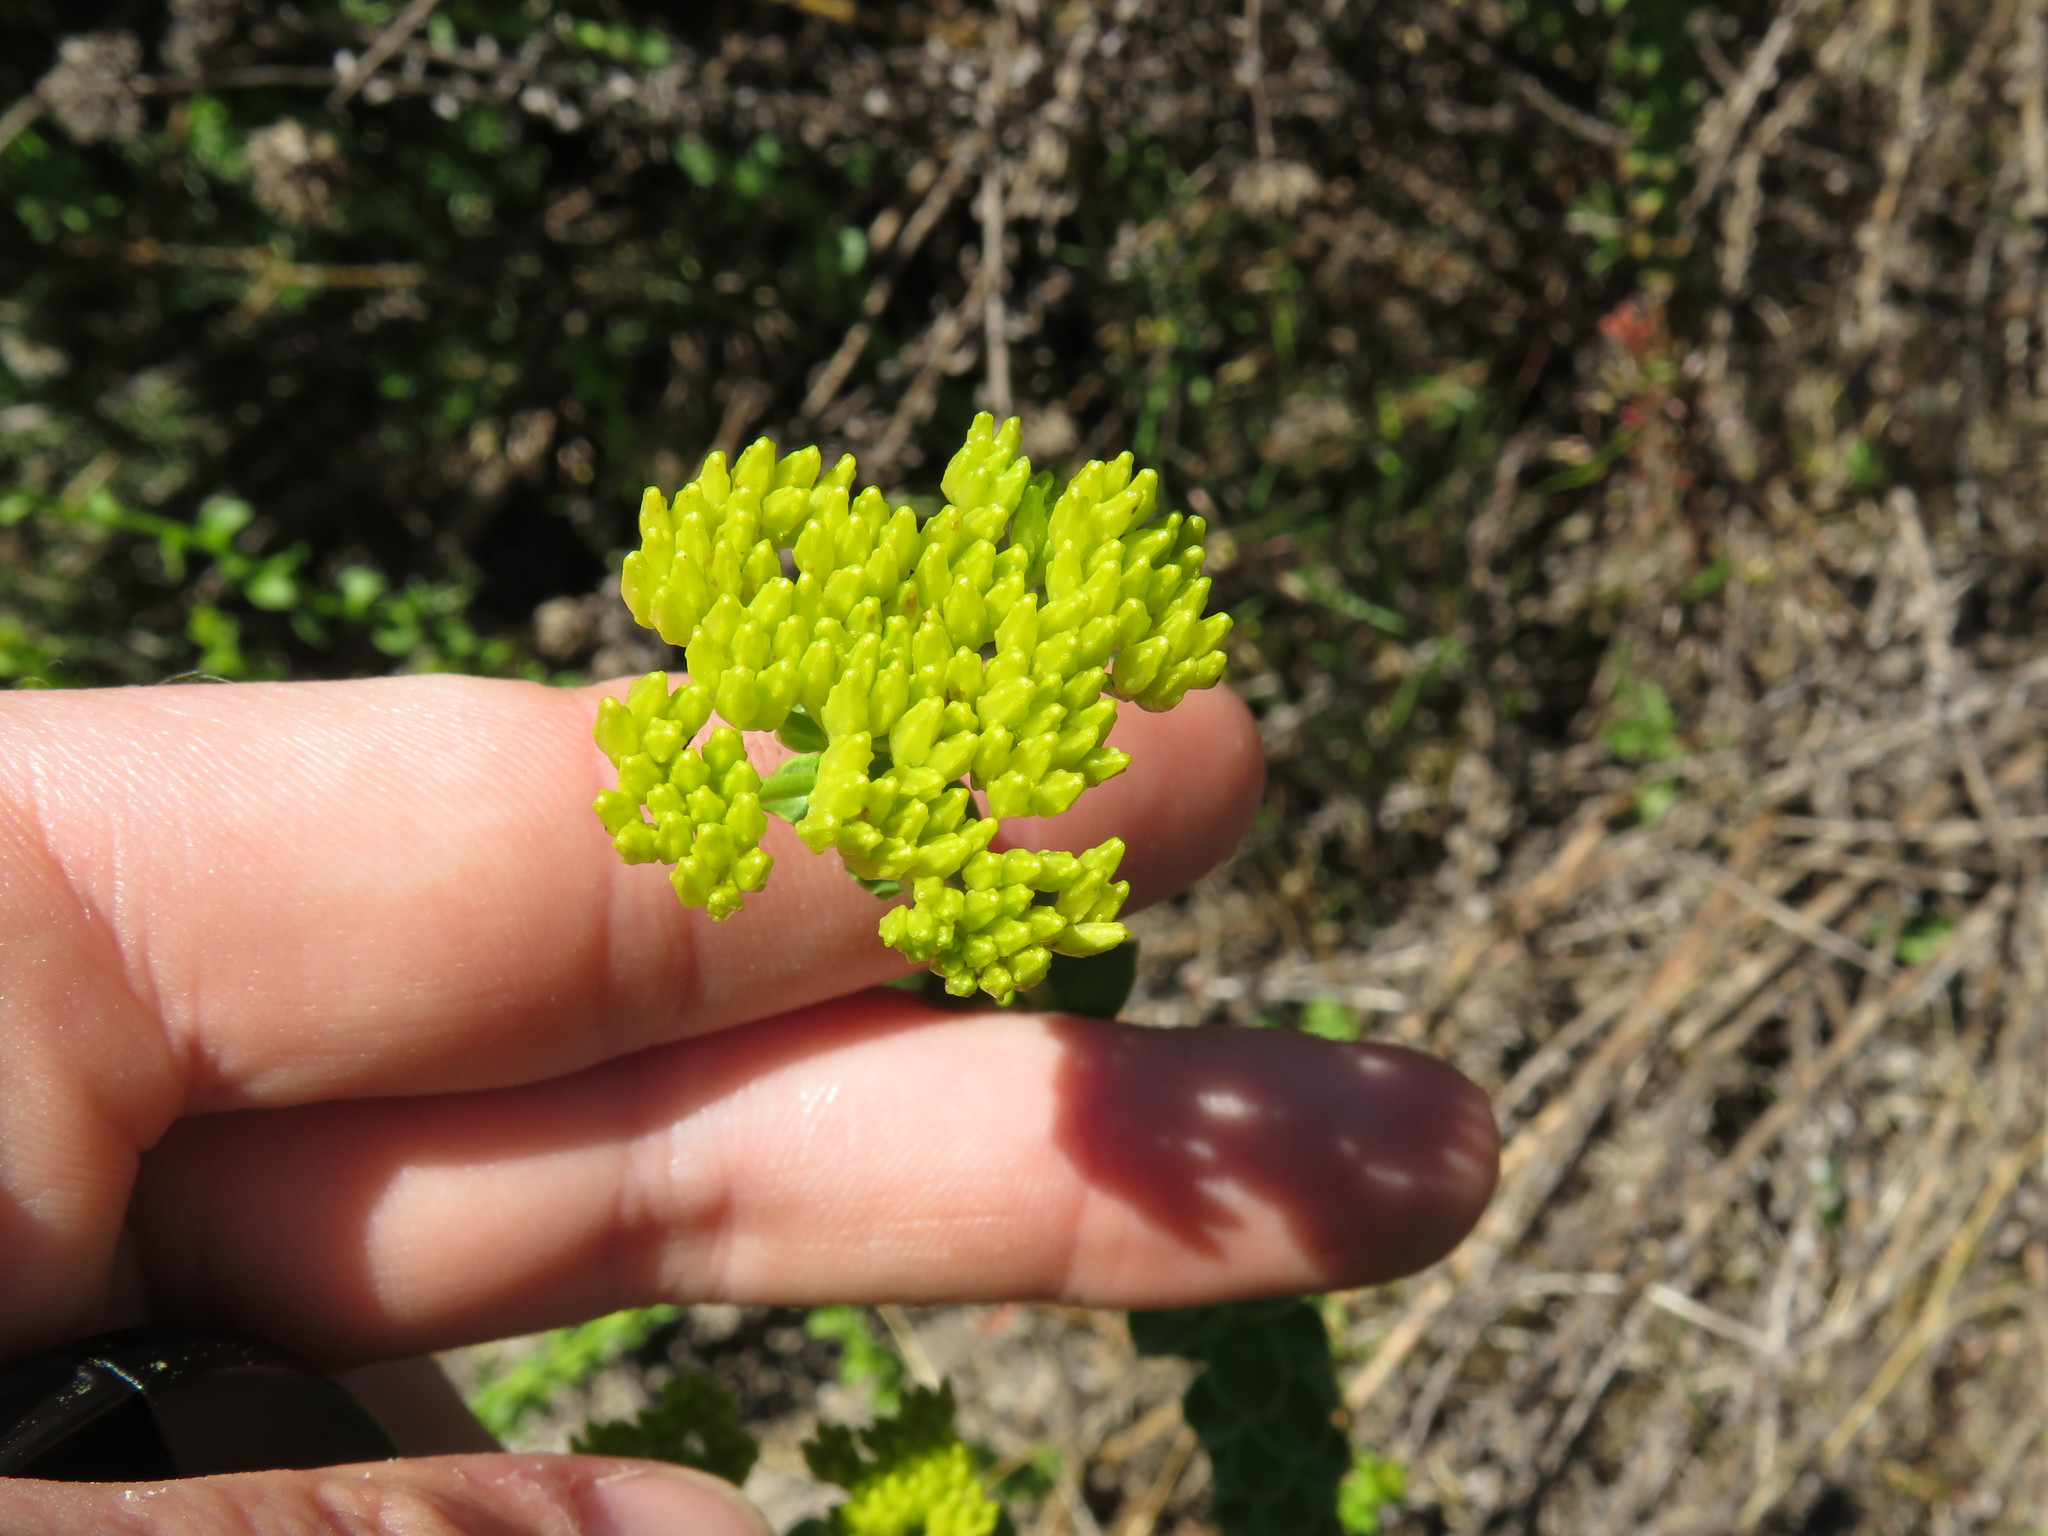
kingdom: Plantae
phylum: Tracheophyta
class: Magnoliopsida
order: Asterales
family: Asteraceae
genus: Athanasia
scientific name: Athanasia dentata
